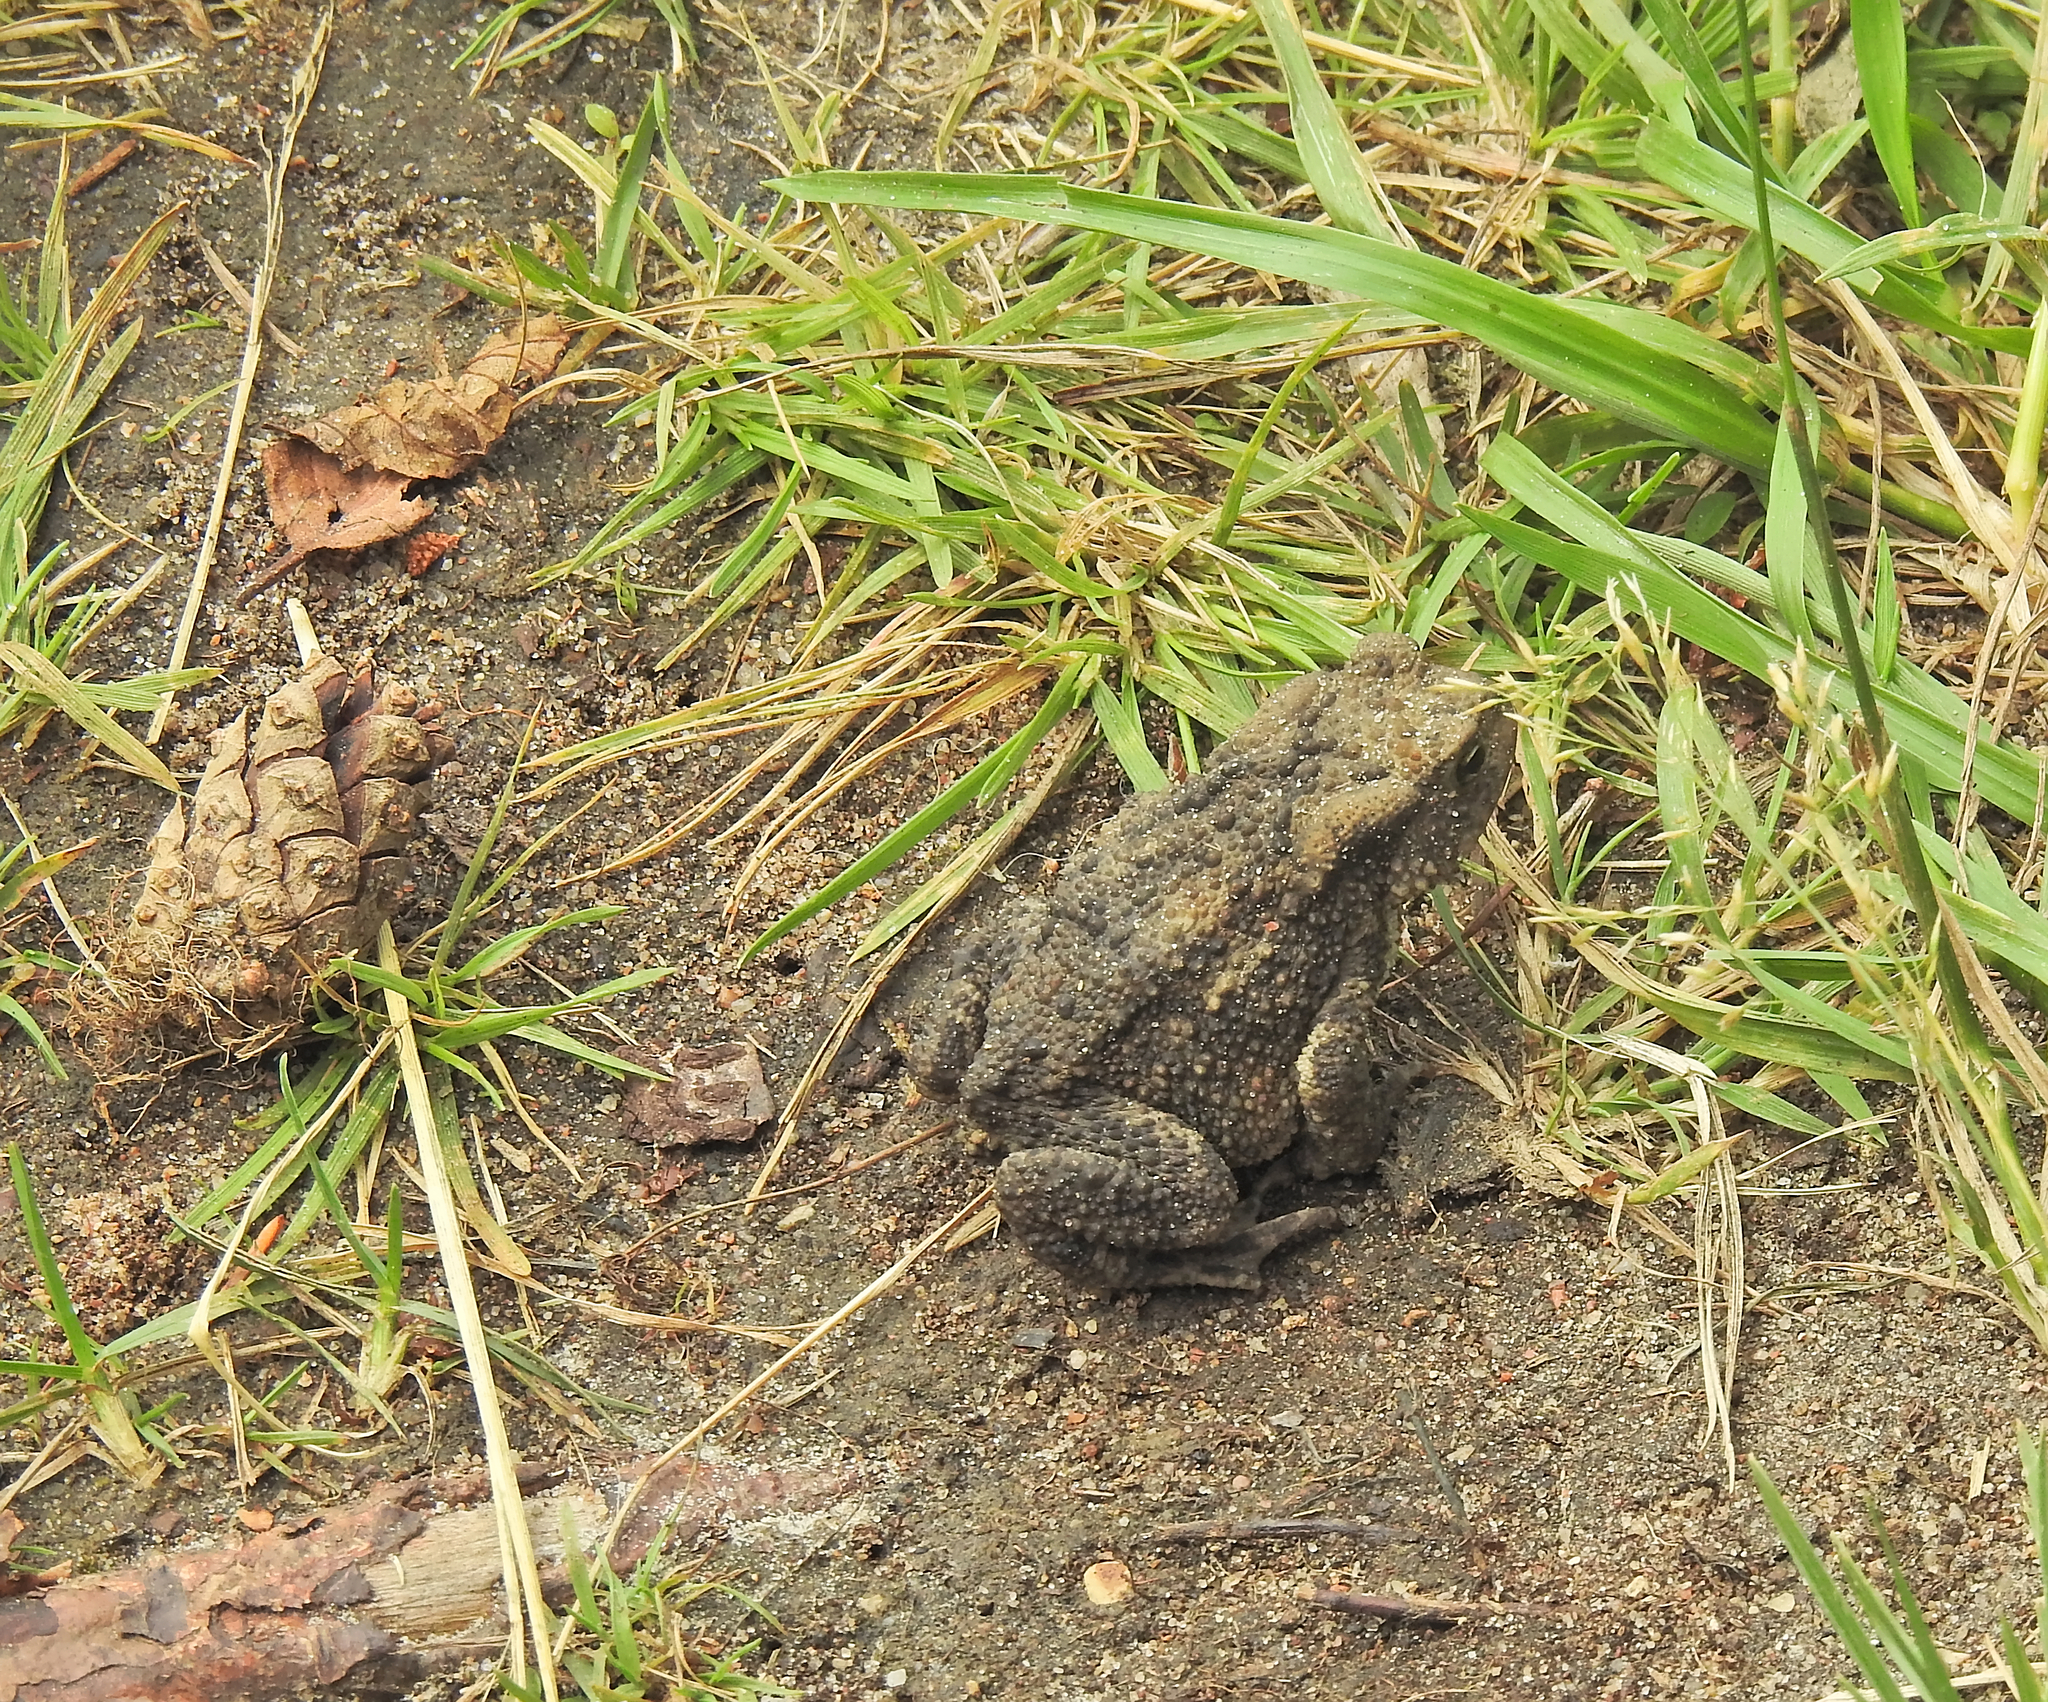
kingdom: Animalia
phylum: Chordata
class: Amphibia
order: Anura
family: Bufonidae
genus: Bufo
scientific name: Bufo bufo
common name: Common toad
